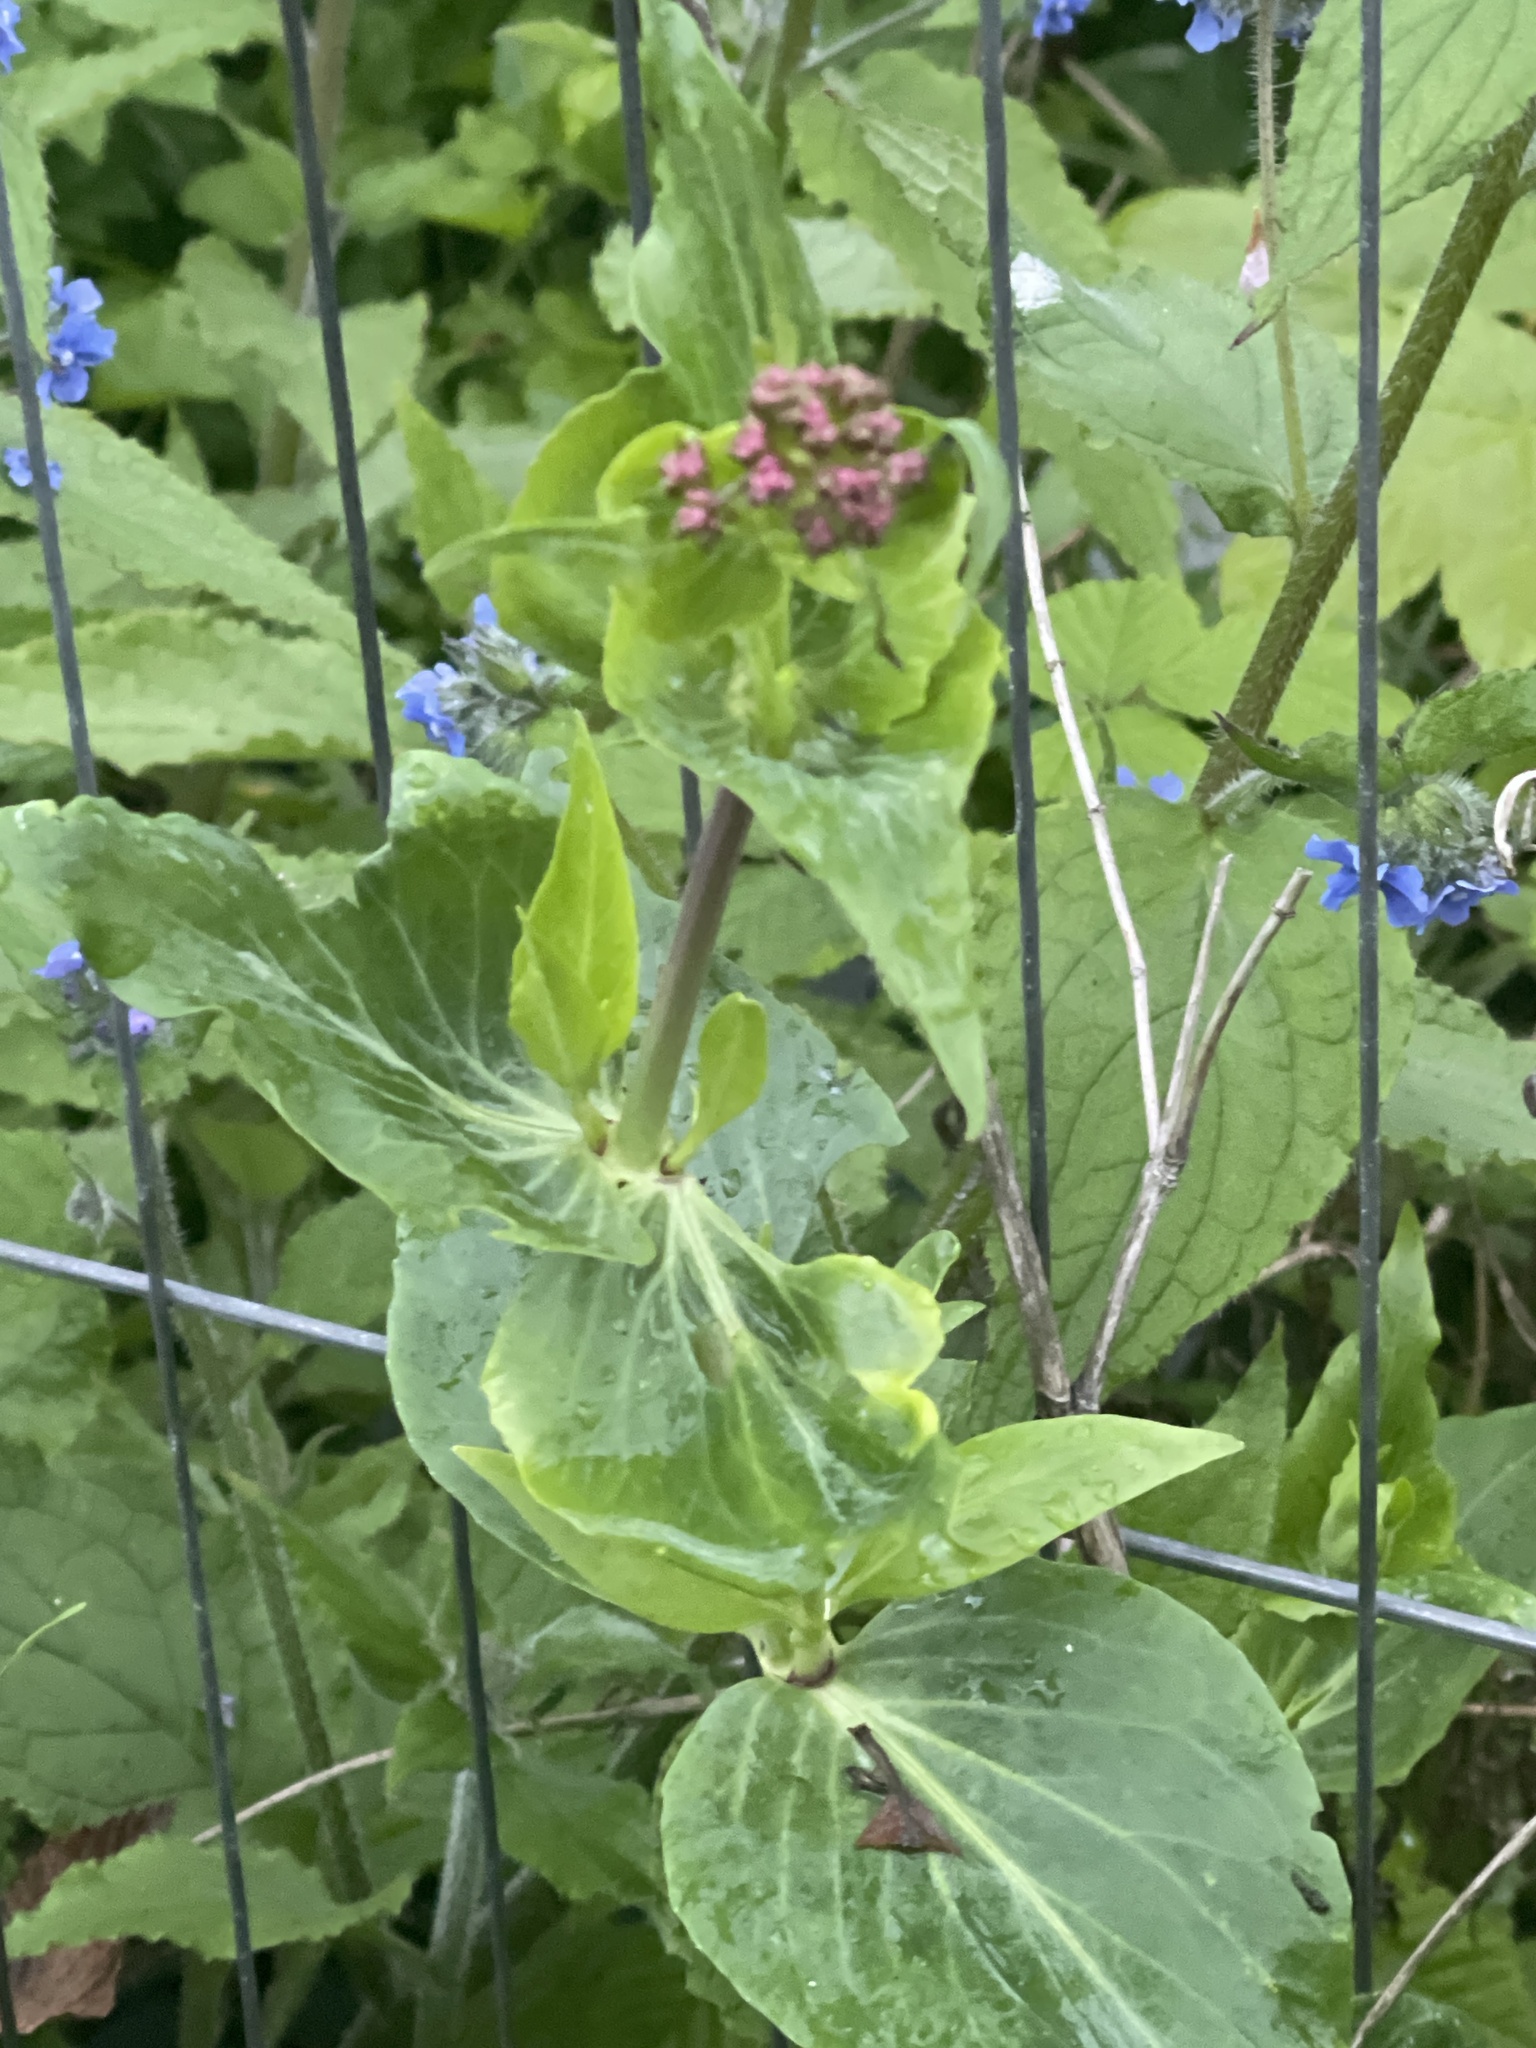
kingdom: Plantae
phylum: Tracheophyta
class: Magnoliopsida
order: Dipsacales
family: Caprifoliaceae
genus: Centranthus
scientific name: Centranthus ruber
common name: Red valerian
